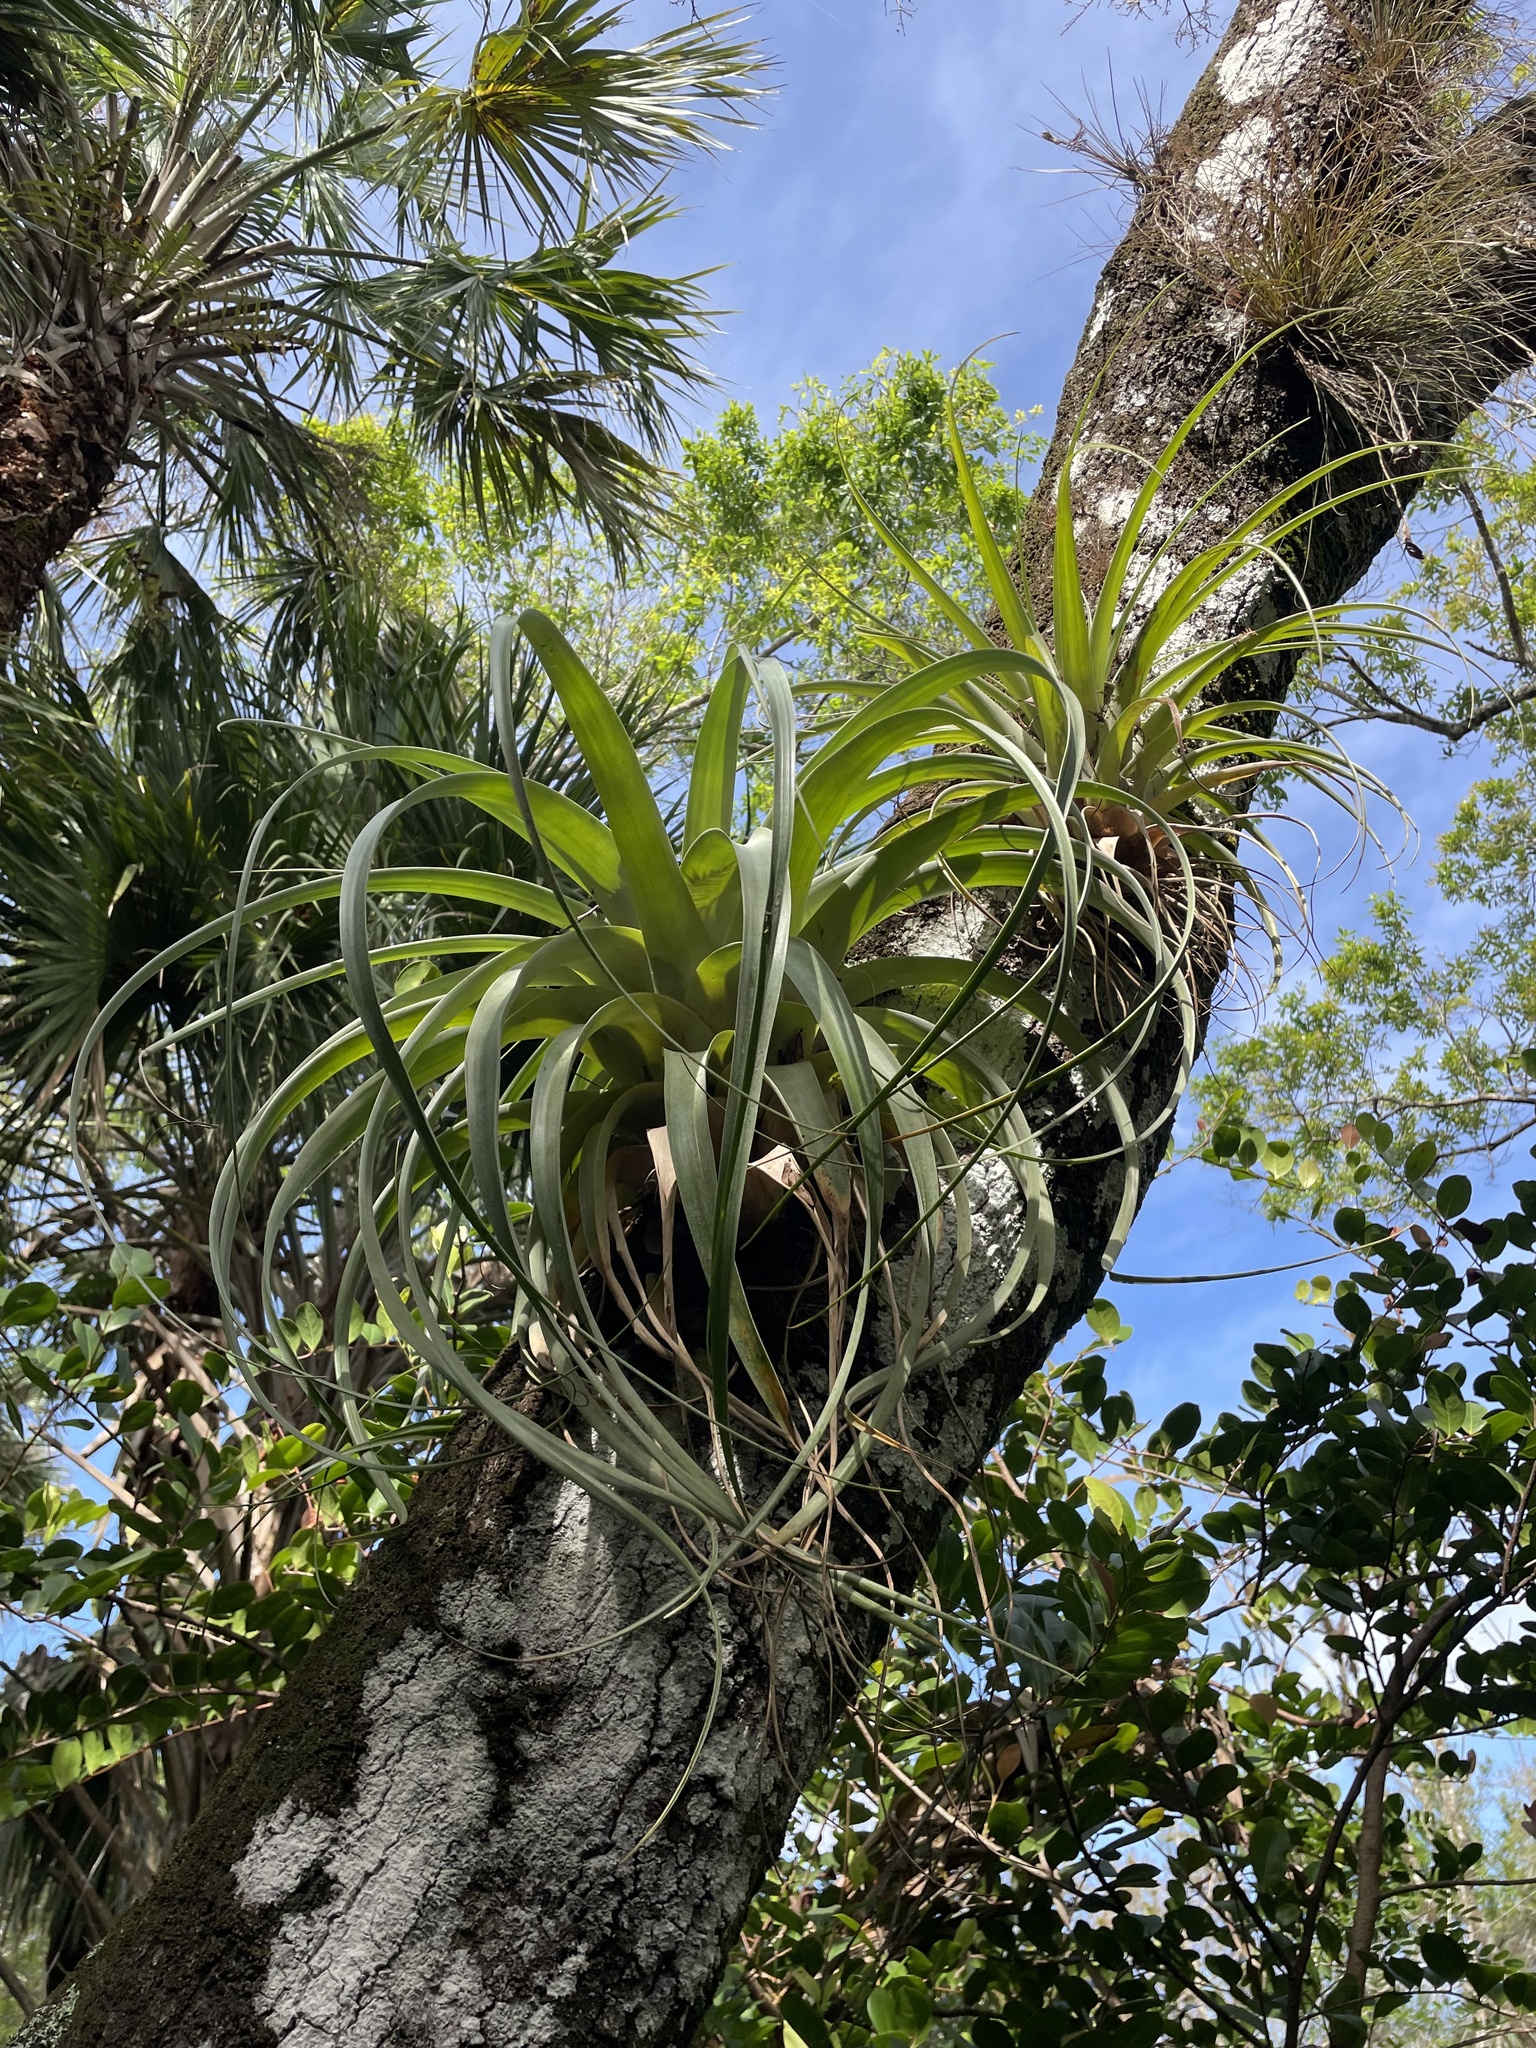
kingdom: Plantae
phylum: Tracheophyta
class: Liliopsida
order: Poales
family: Bromeliaceae
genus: Tillandsia
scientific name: Tillandsia utriculata
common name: Wild pine
